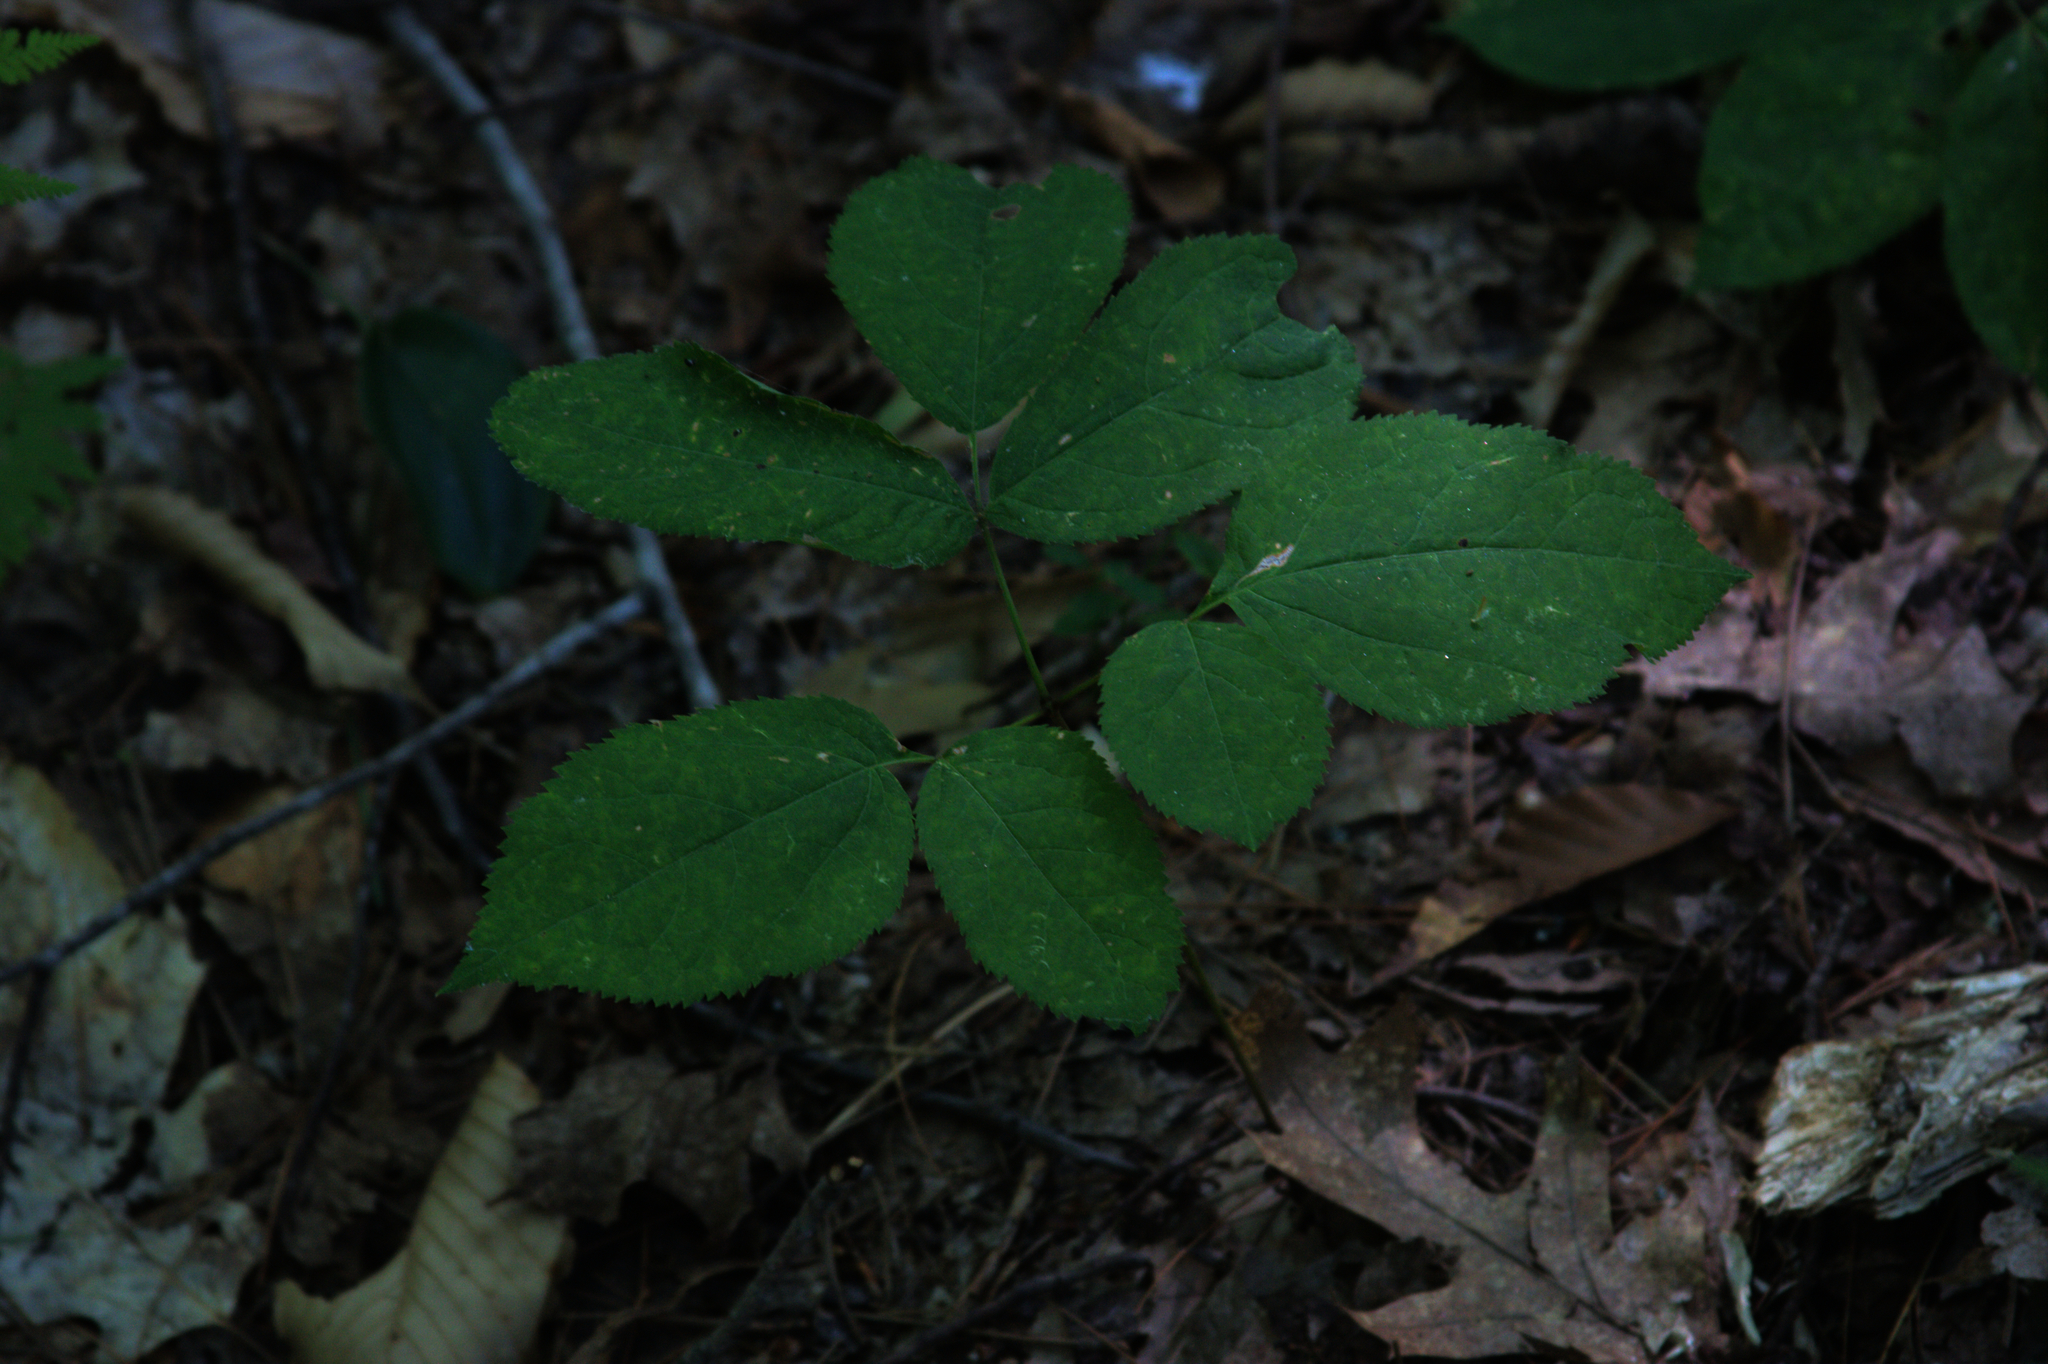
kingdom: Plantae
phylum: Tracheophyta
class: Magnoliopsida
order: Apiales
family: Araliaceae
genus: Aralia
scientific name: Aralia nudicaulis
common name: Wild sarsaparilla
